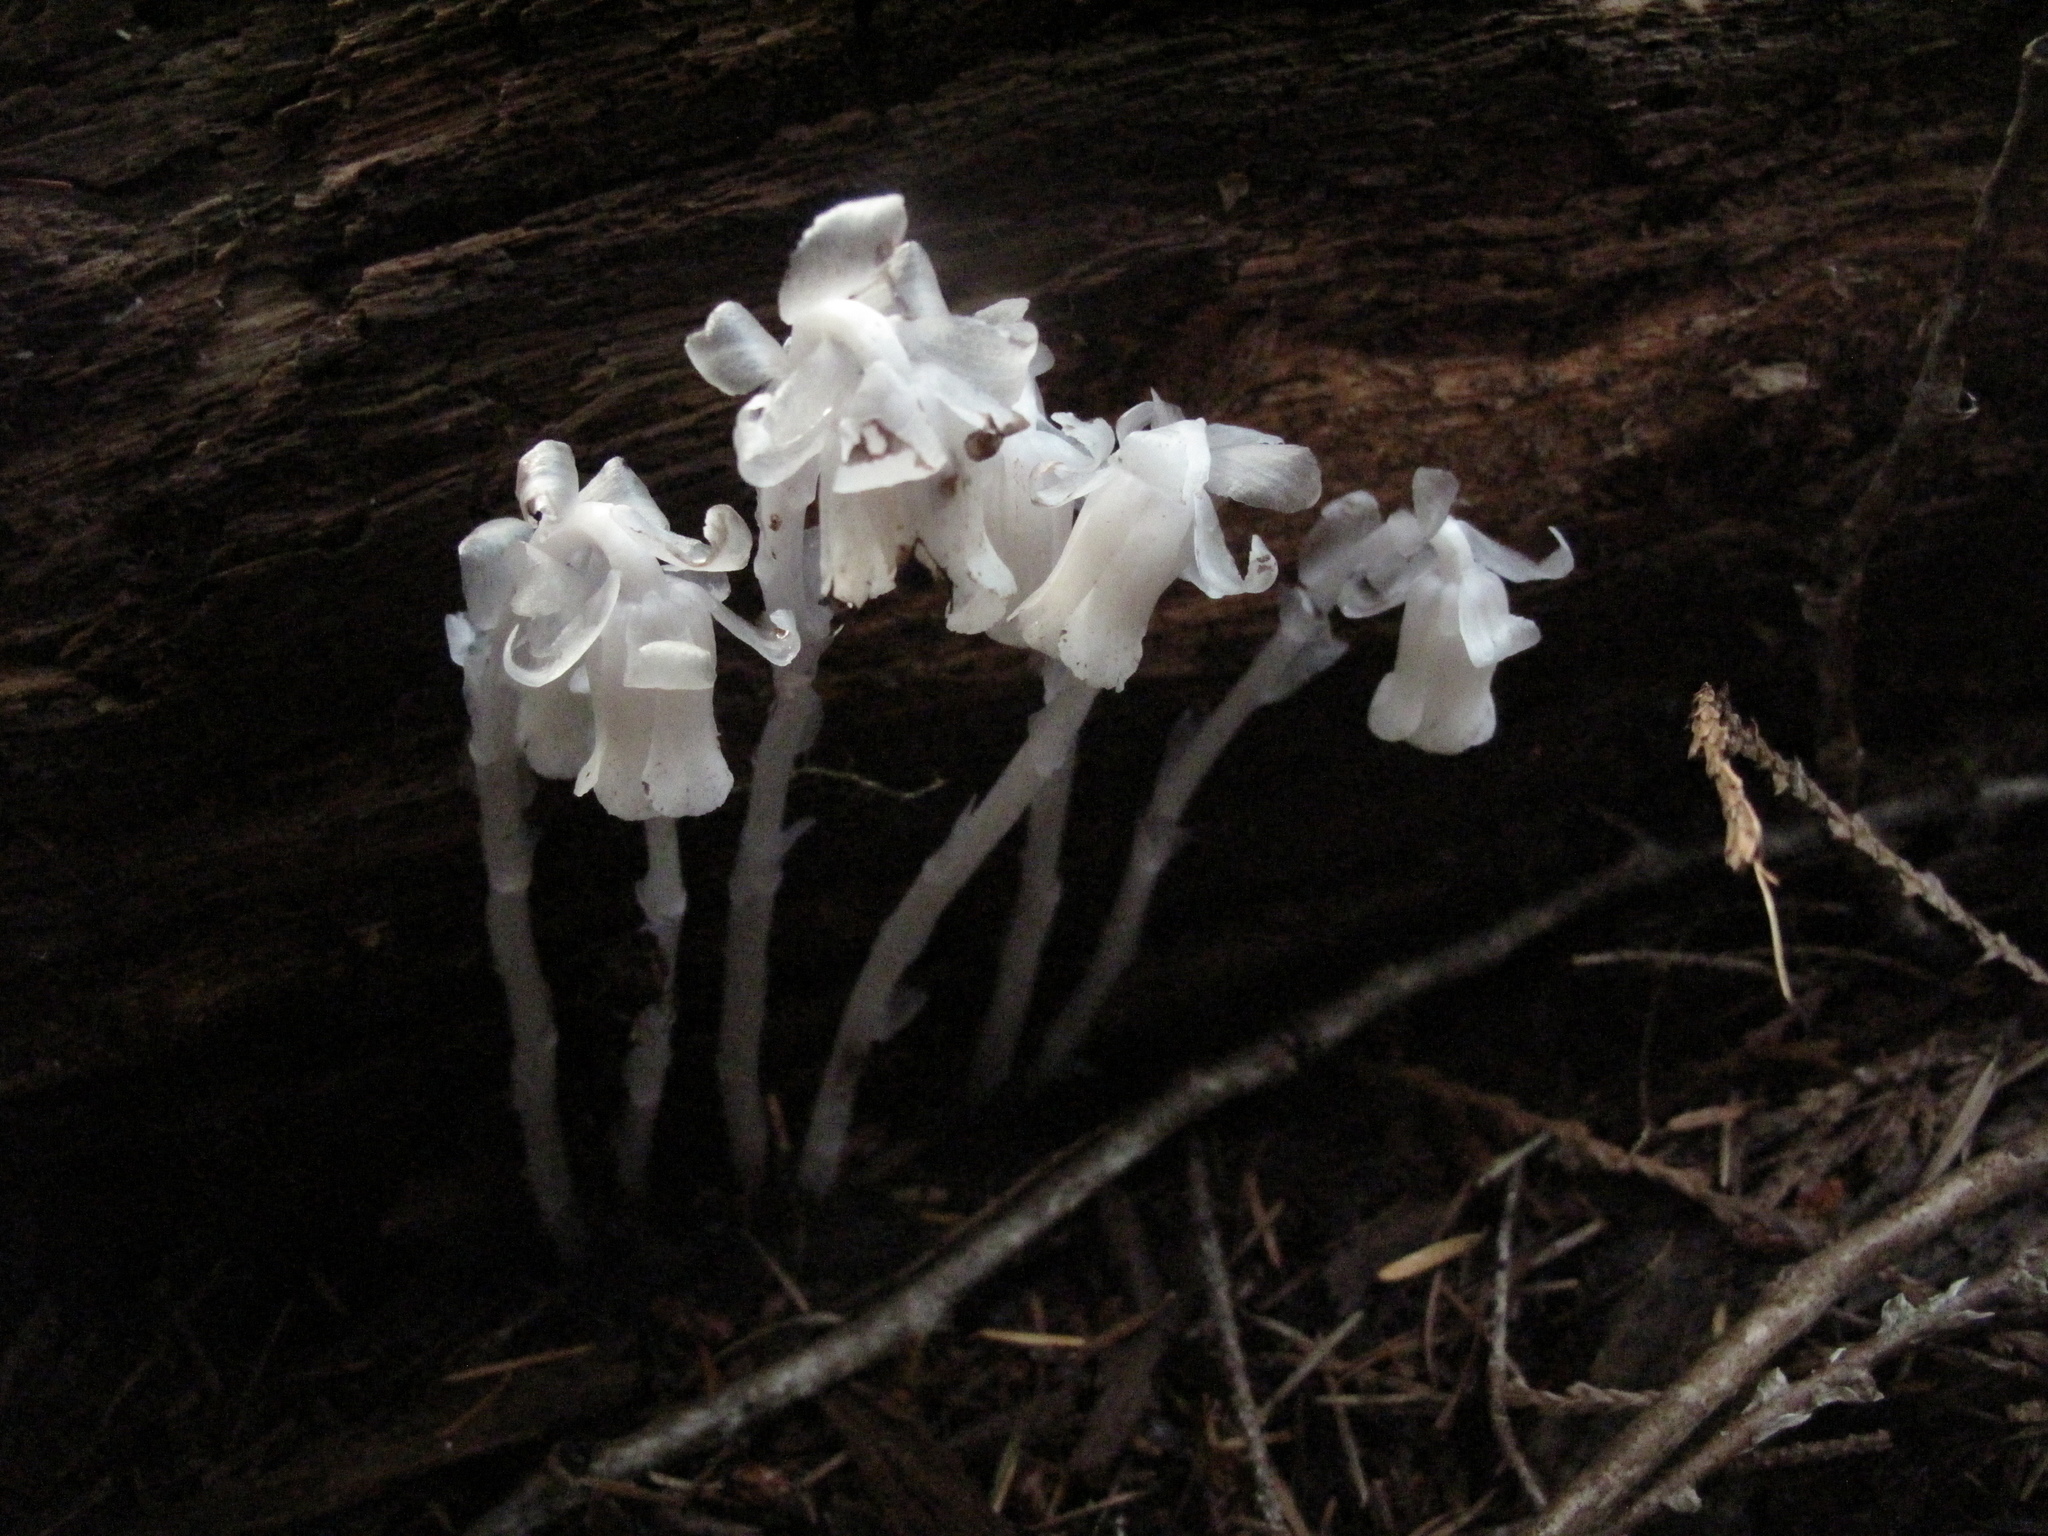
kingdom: Plantae
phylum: Tracheophyta
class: Magnoliopsida
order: Ericales
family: Ericaceae
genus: Monotropa
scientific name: Monotropa uniflora
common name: Convulsion root
